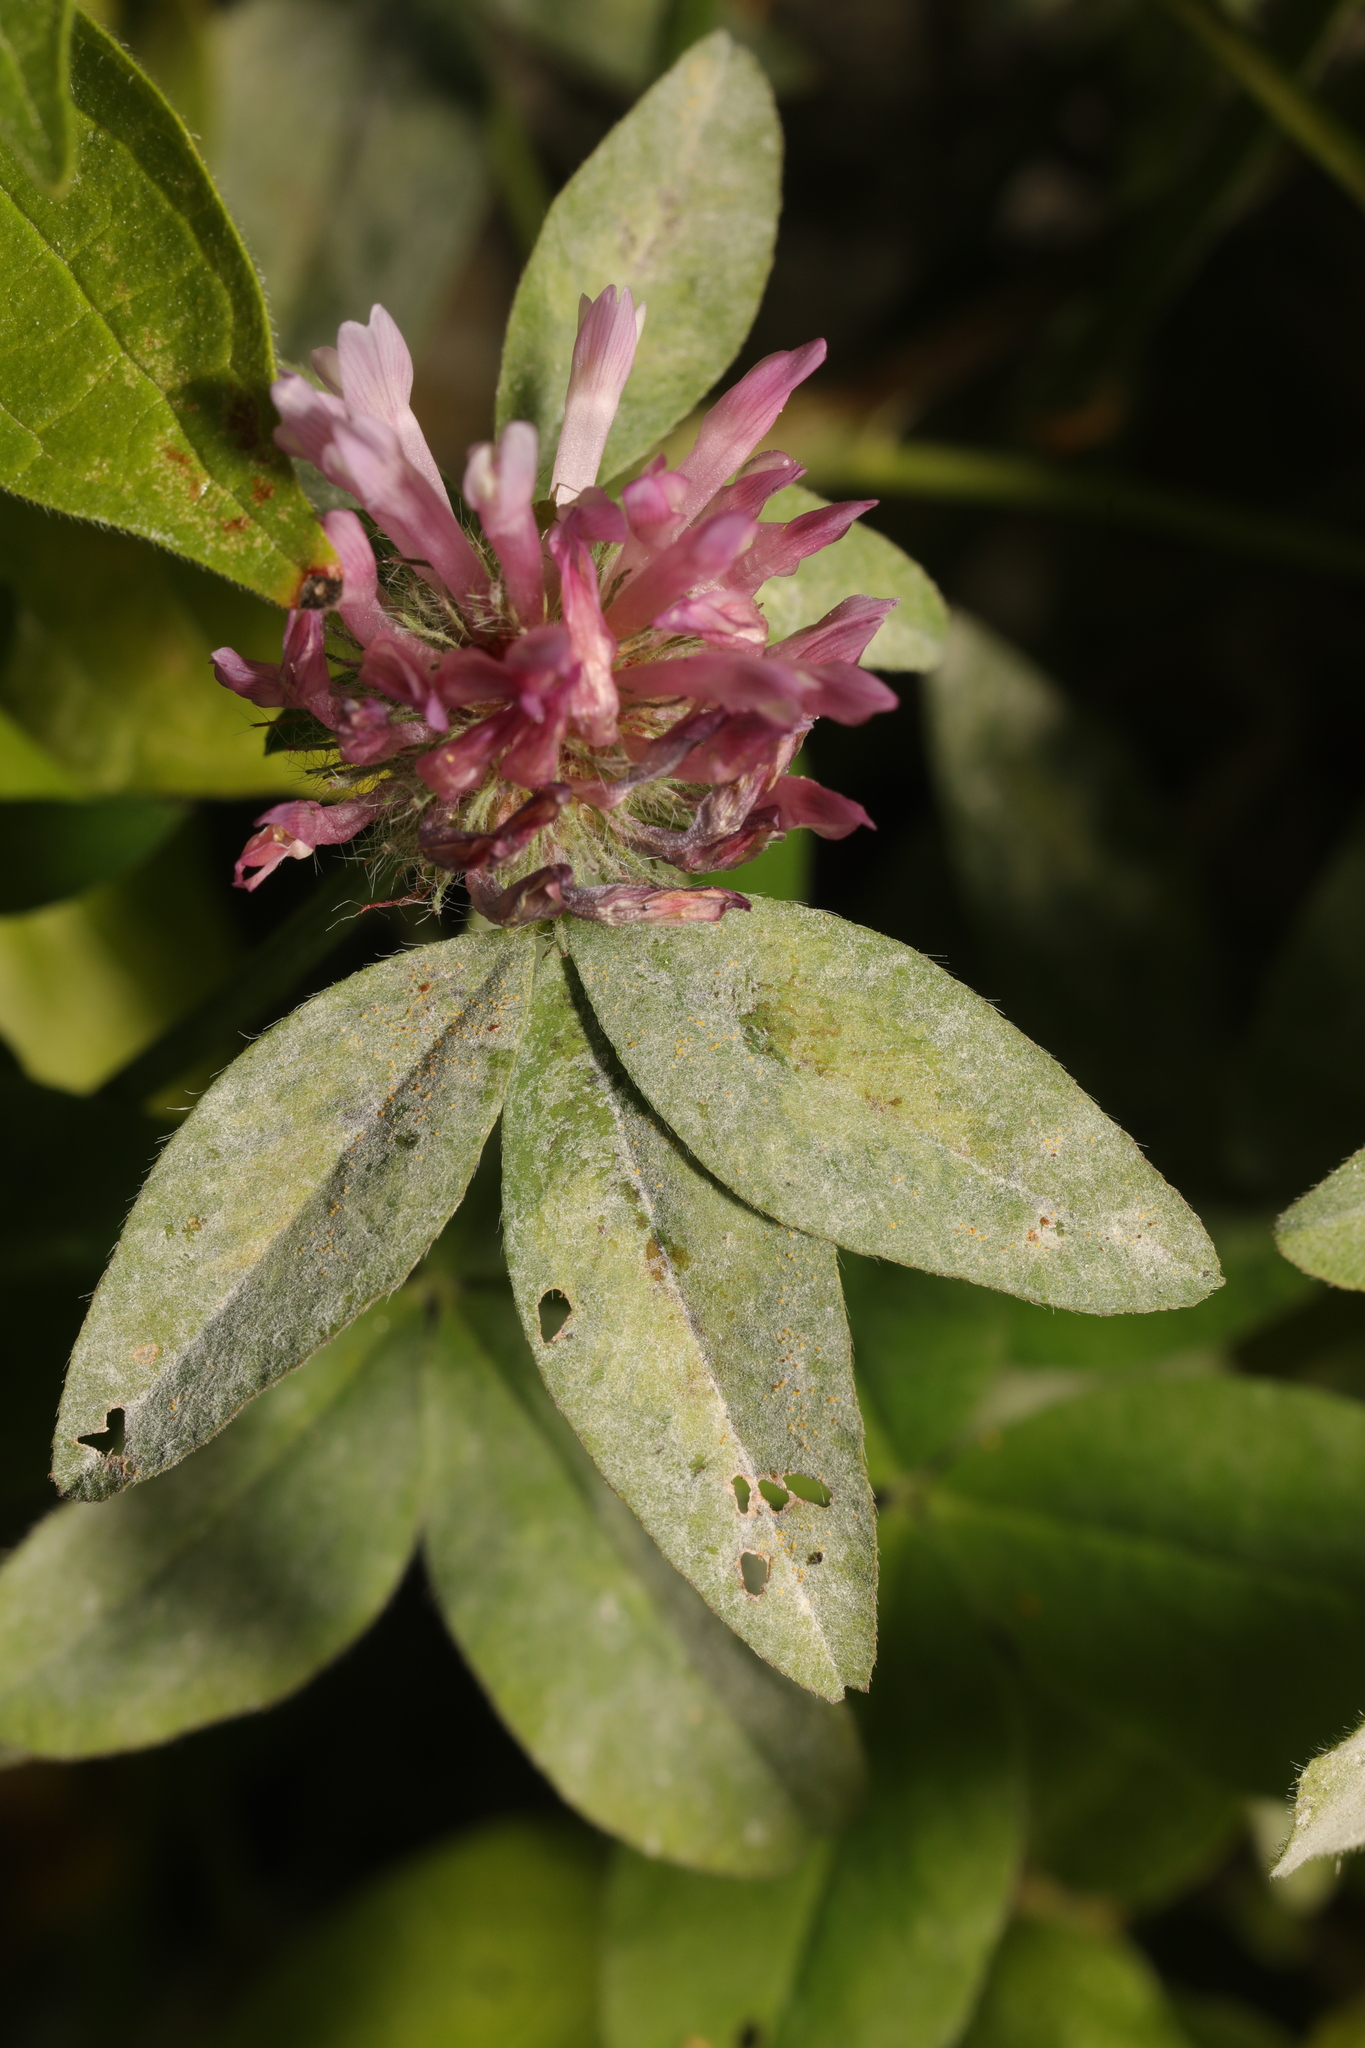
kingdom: Plantae
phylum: Tracheophyta
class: Magnoliopsida
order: Fabales
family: Fabaceae
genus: Trifolium
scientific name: Trifolium pratense
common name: Red clover
